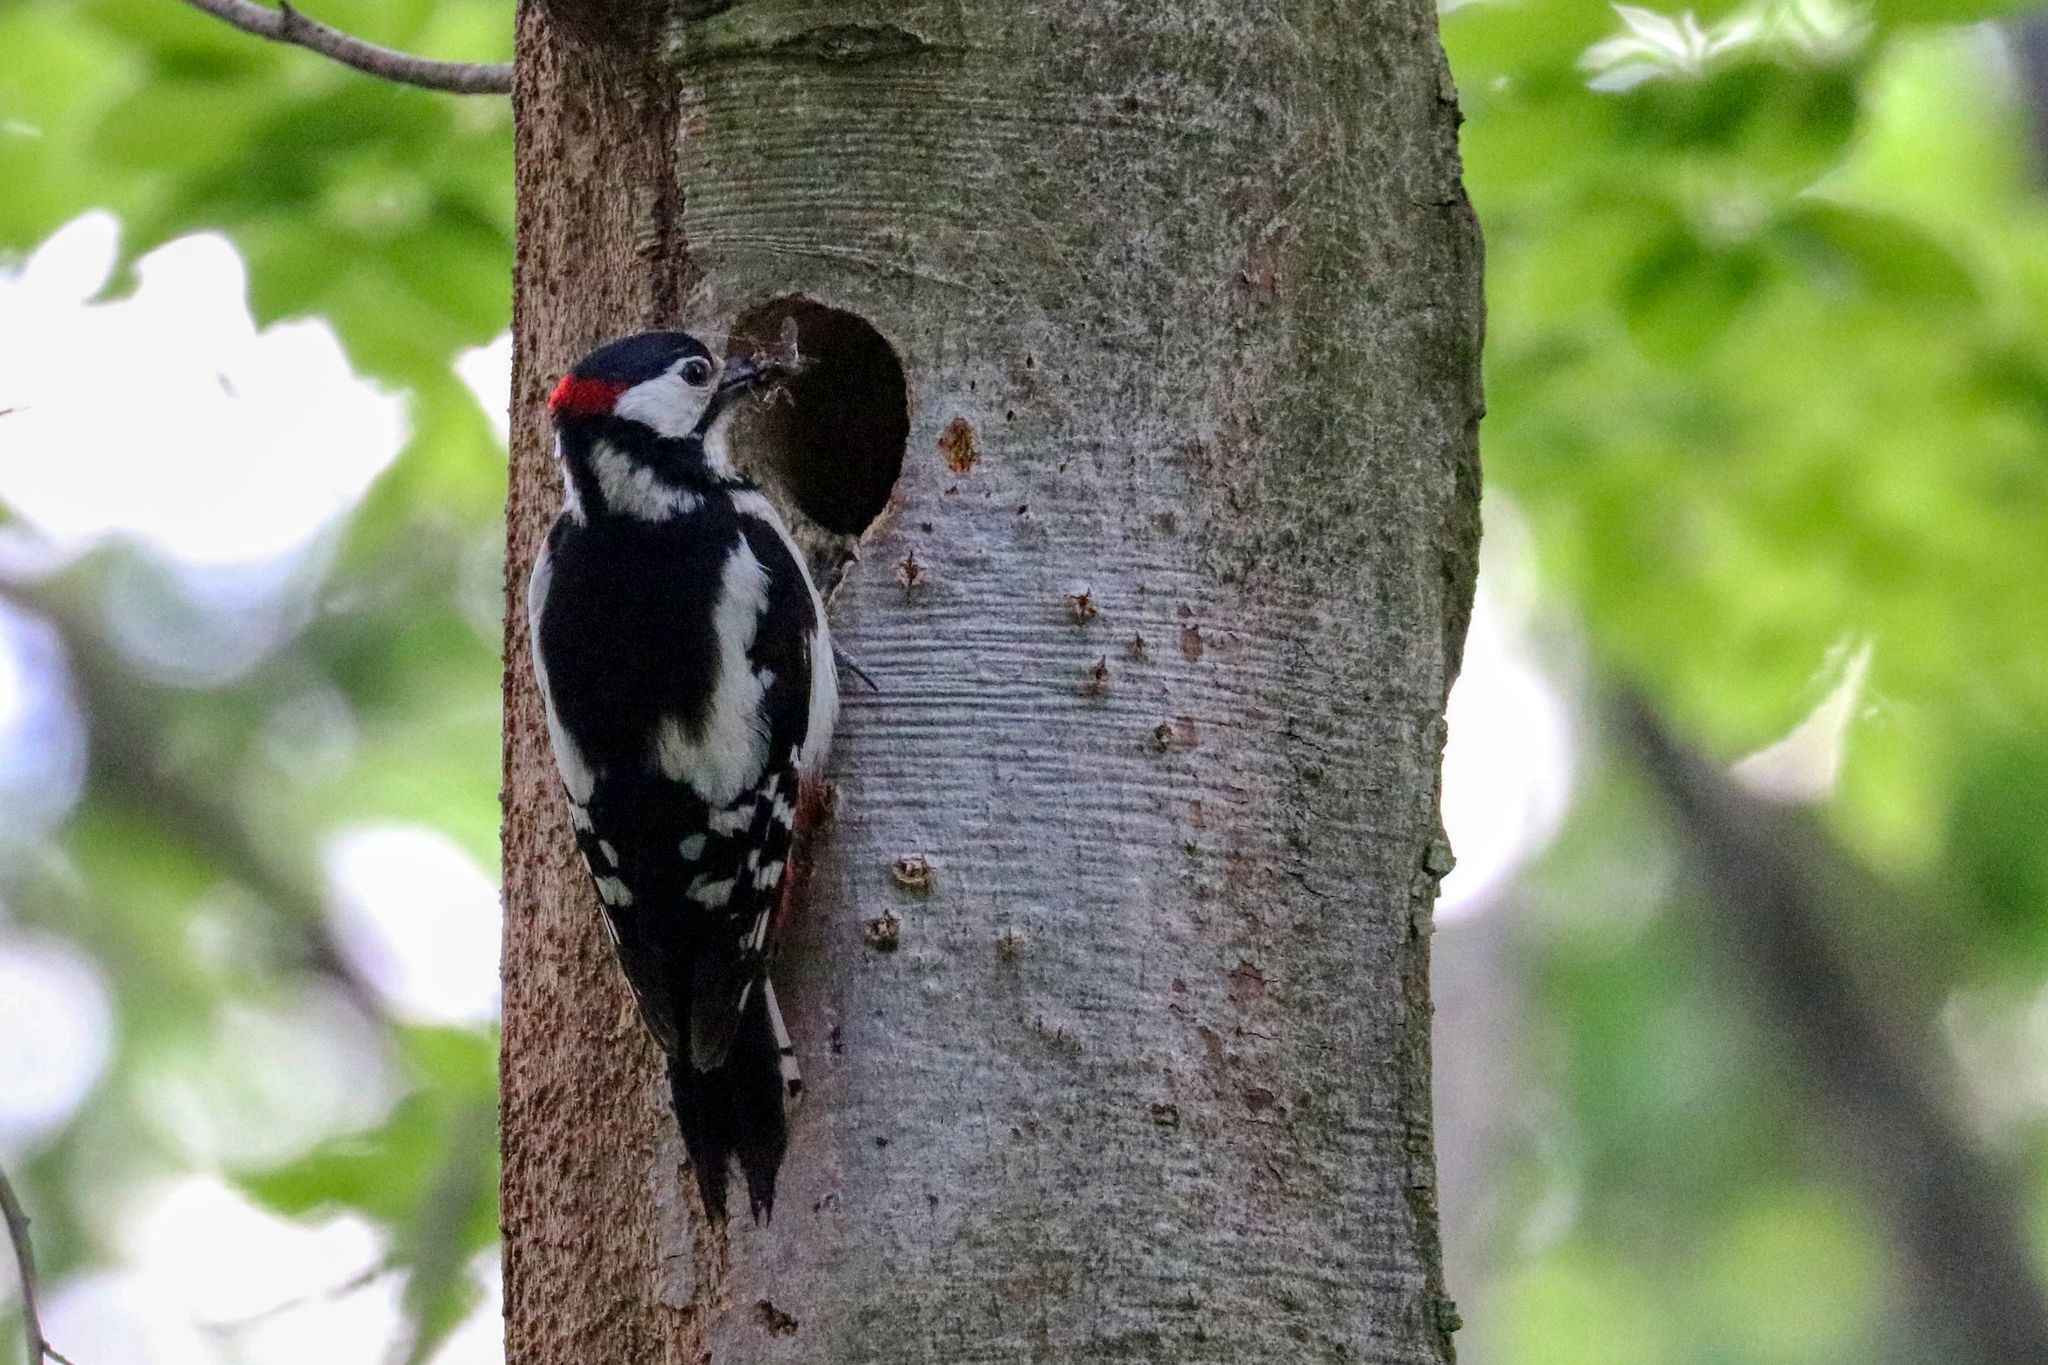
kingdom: Animalia
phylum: Chordata
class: Aves
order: Piciformes
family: Picidae
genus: Dendrocopos
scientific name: Dendrocopos major
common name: Great spotted woodpecker
